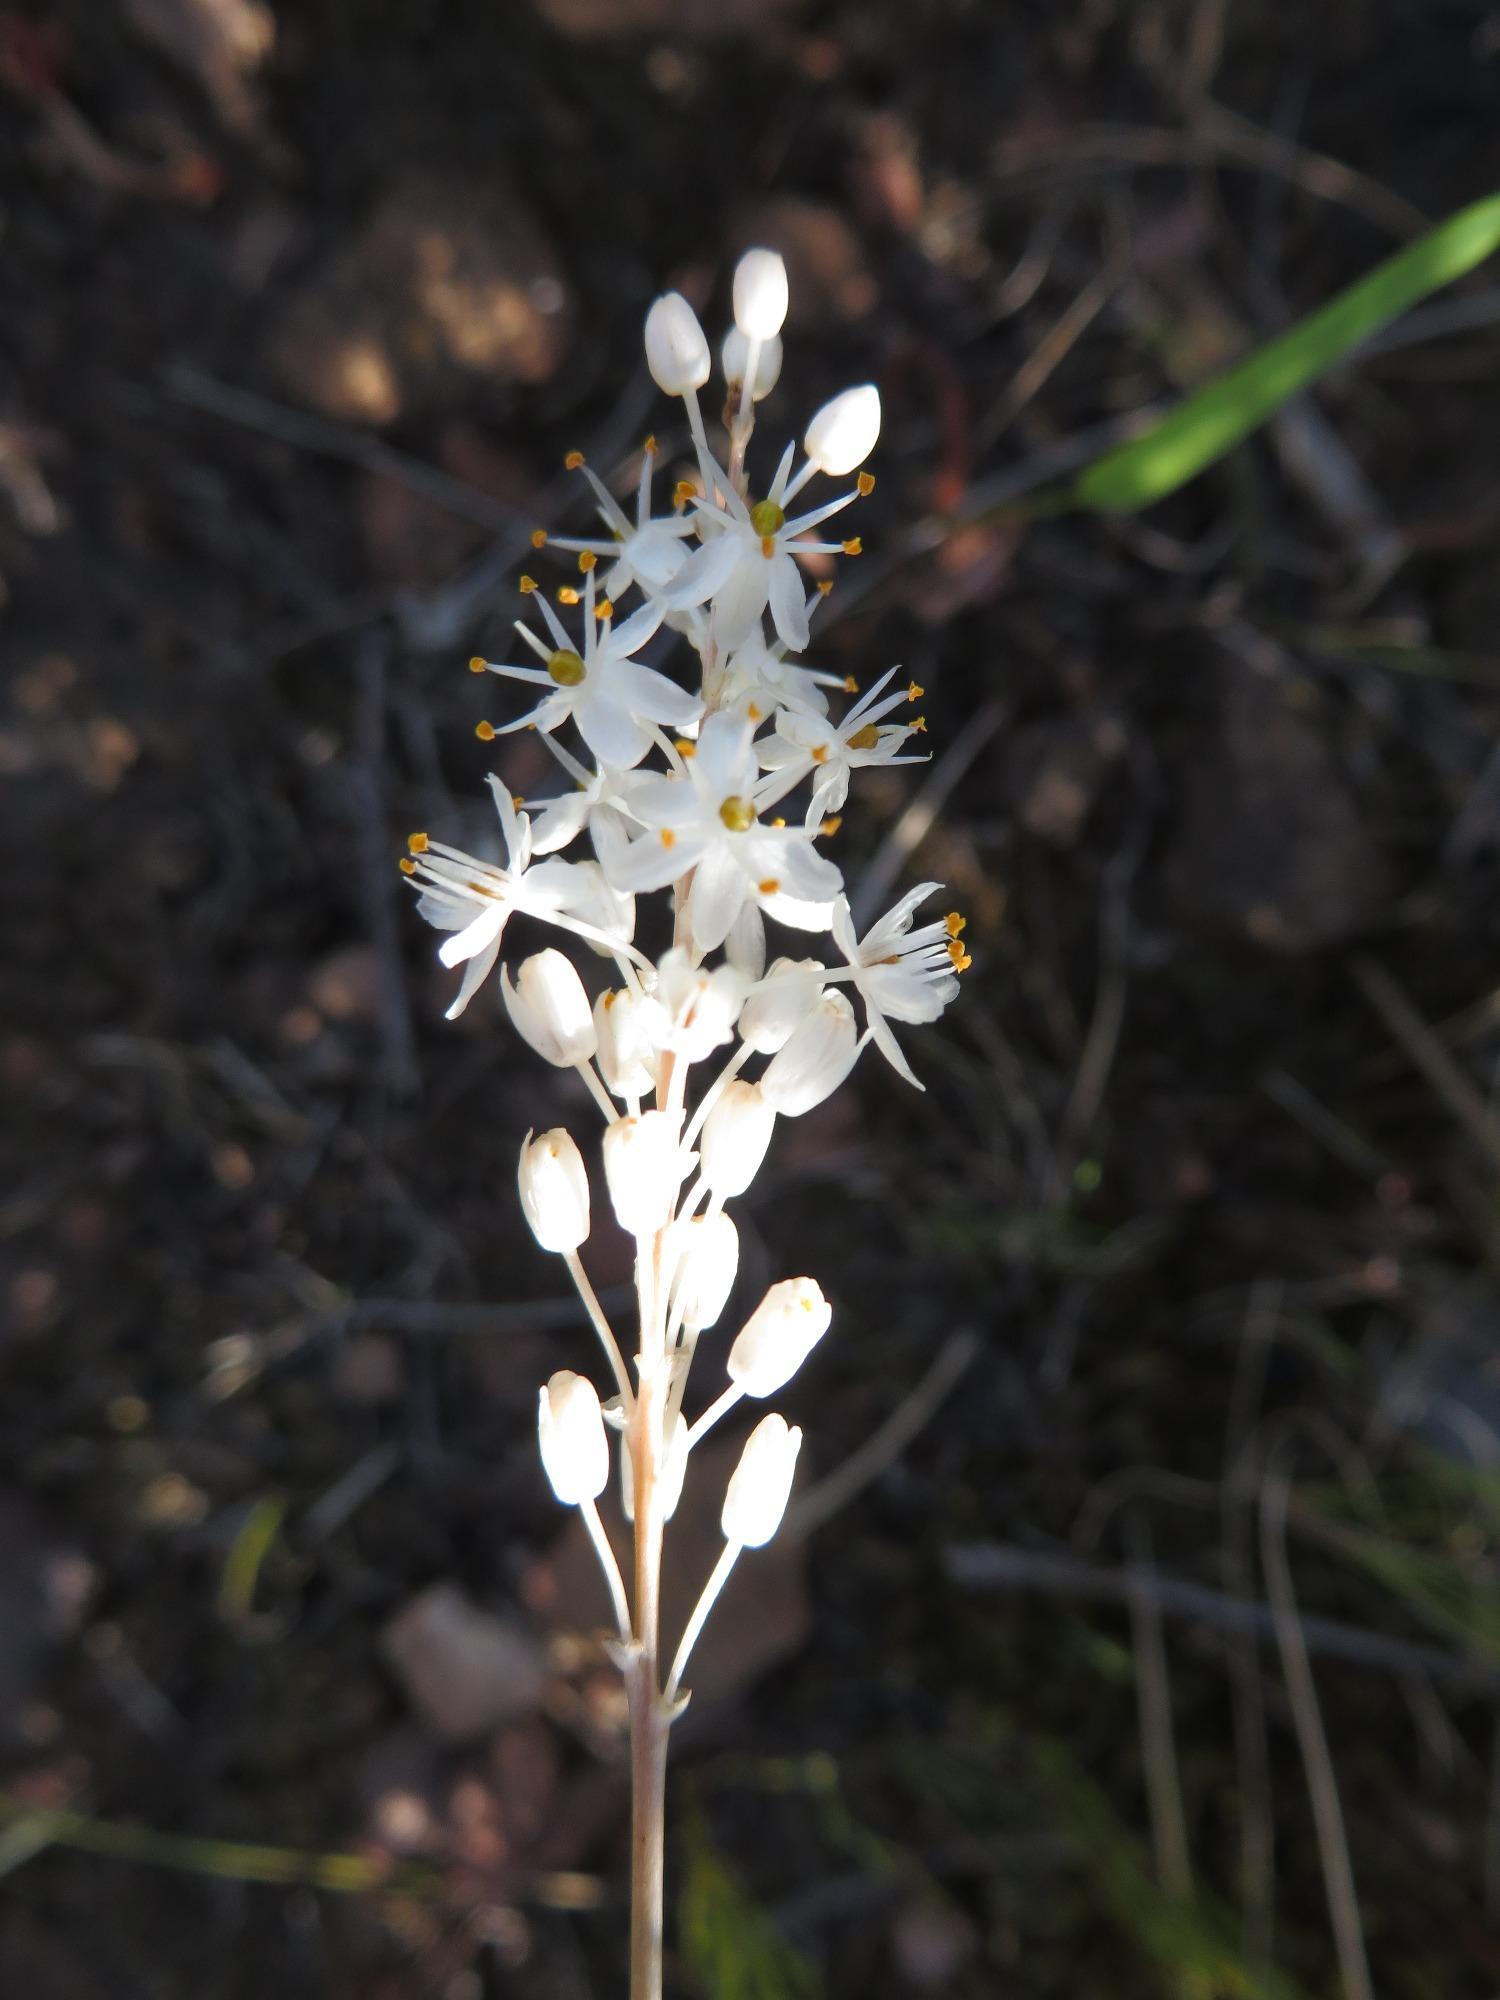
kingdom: Plantae
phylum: Tracheophyta
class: Liliopsida
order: Asparagales
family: Asphodelaceae
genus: Bulbinella
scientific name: Bulbinella trinervis
